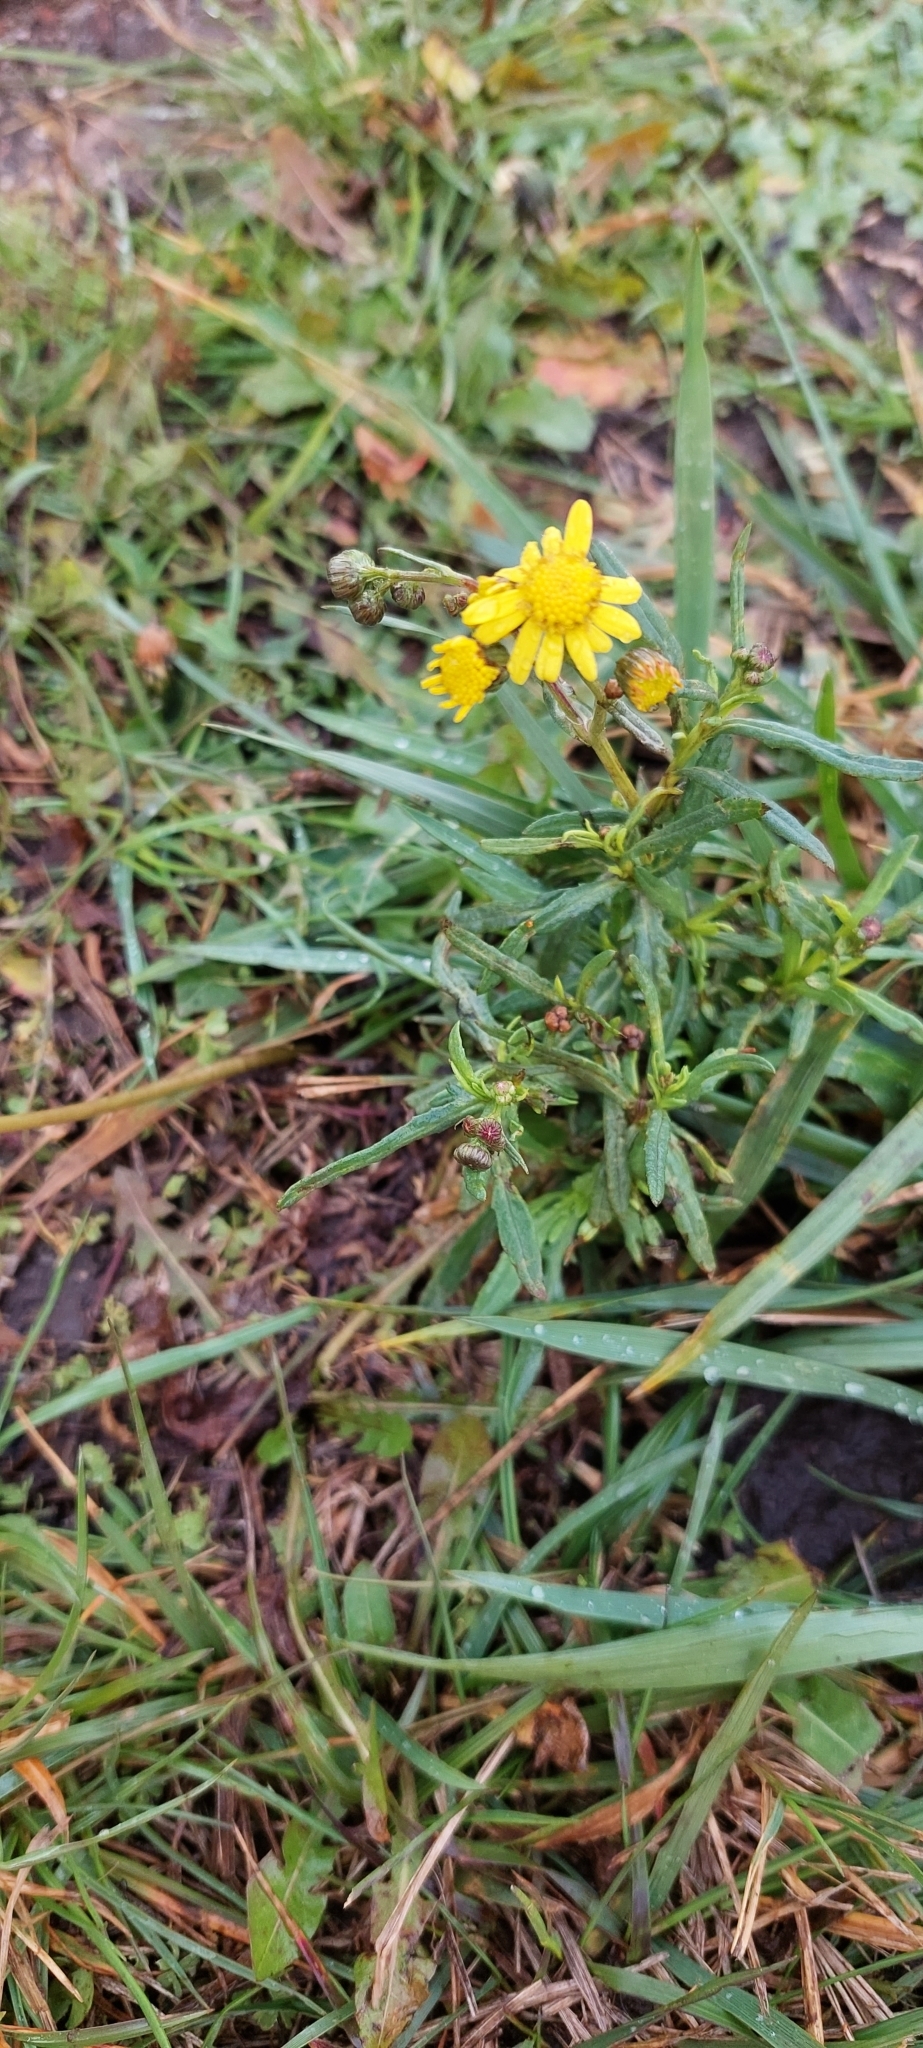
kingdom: Plantae
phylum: Tracheophyta
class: Magnoliopsida
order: Asterales
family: Asteraceae
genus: Senecio
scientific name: Senecio madagascariensis
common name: Madagascar ragwort
